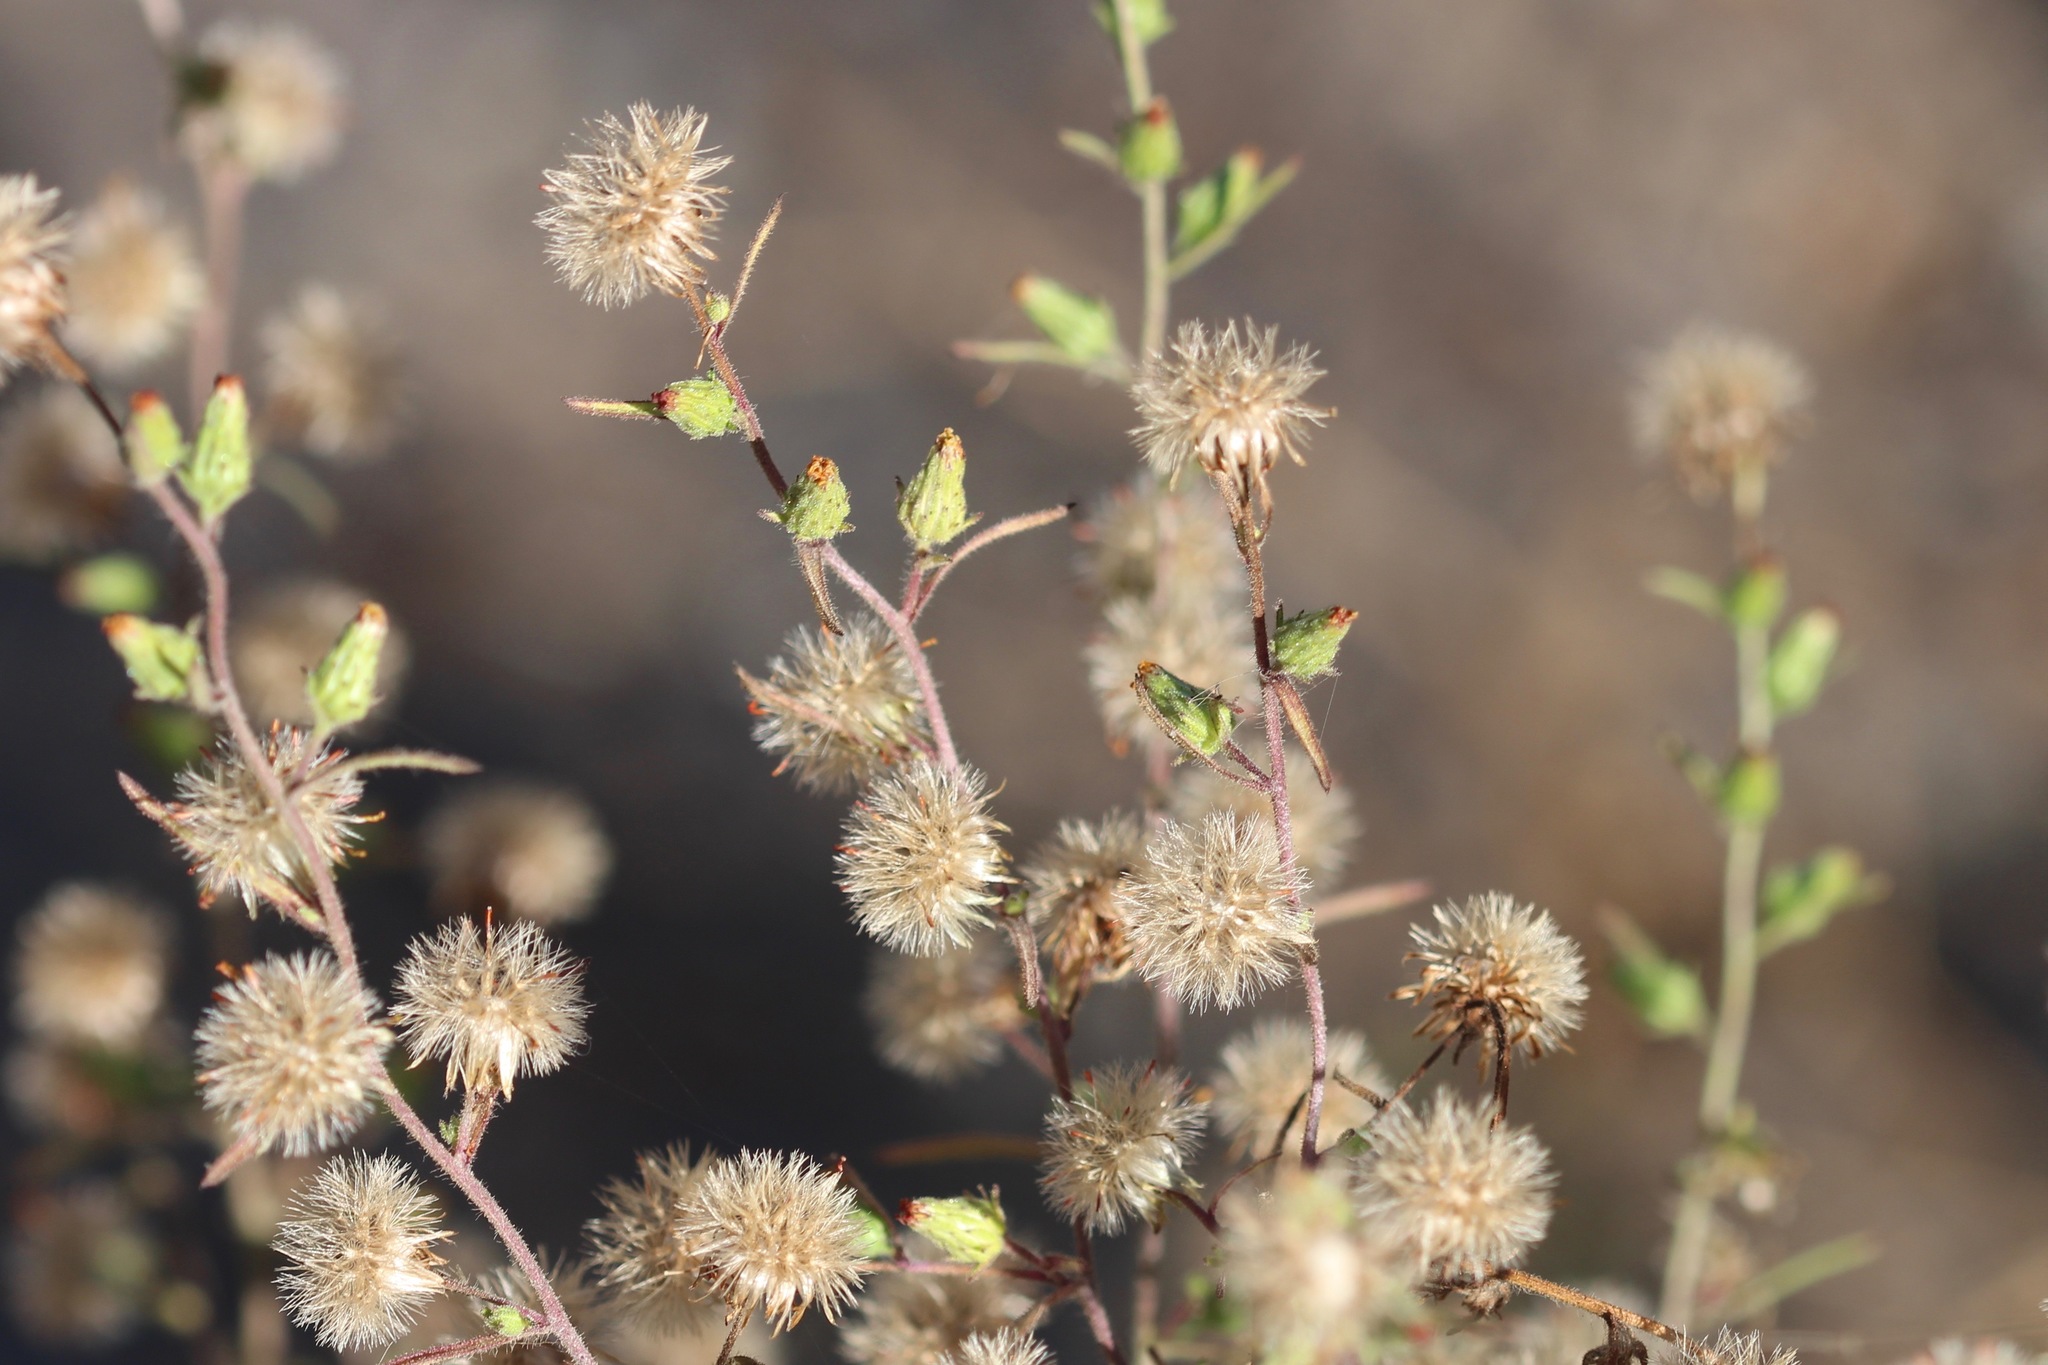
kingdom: Plantae
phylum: Tracheophyta
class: Magnoliopsida
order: Asterales
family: Asteraceae
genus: Dittrichia
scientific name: Dittrichia graveolens
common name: Stinking fleabane
